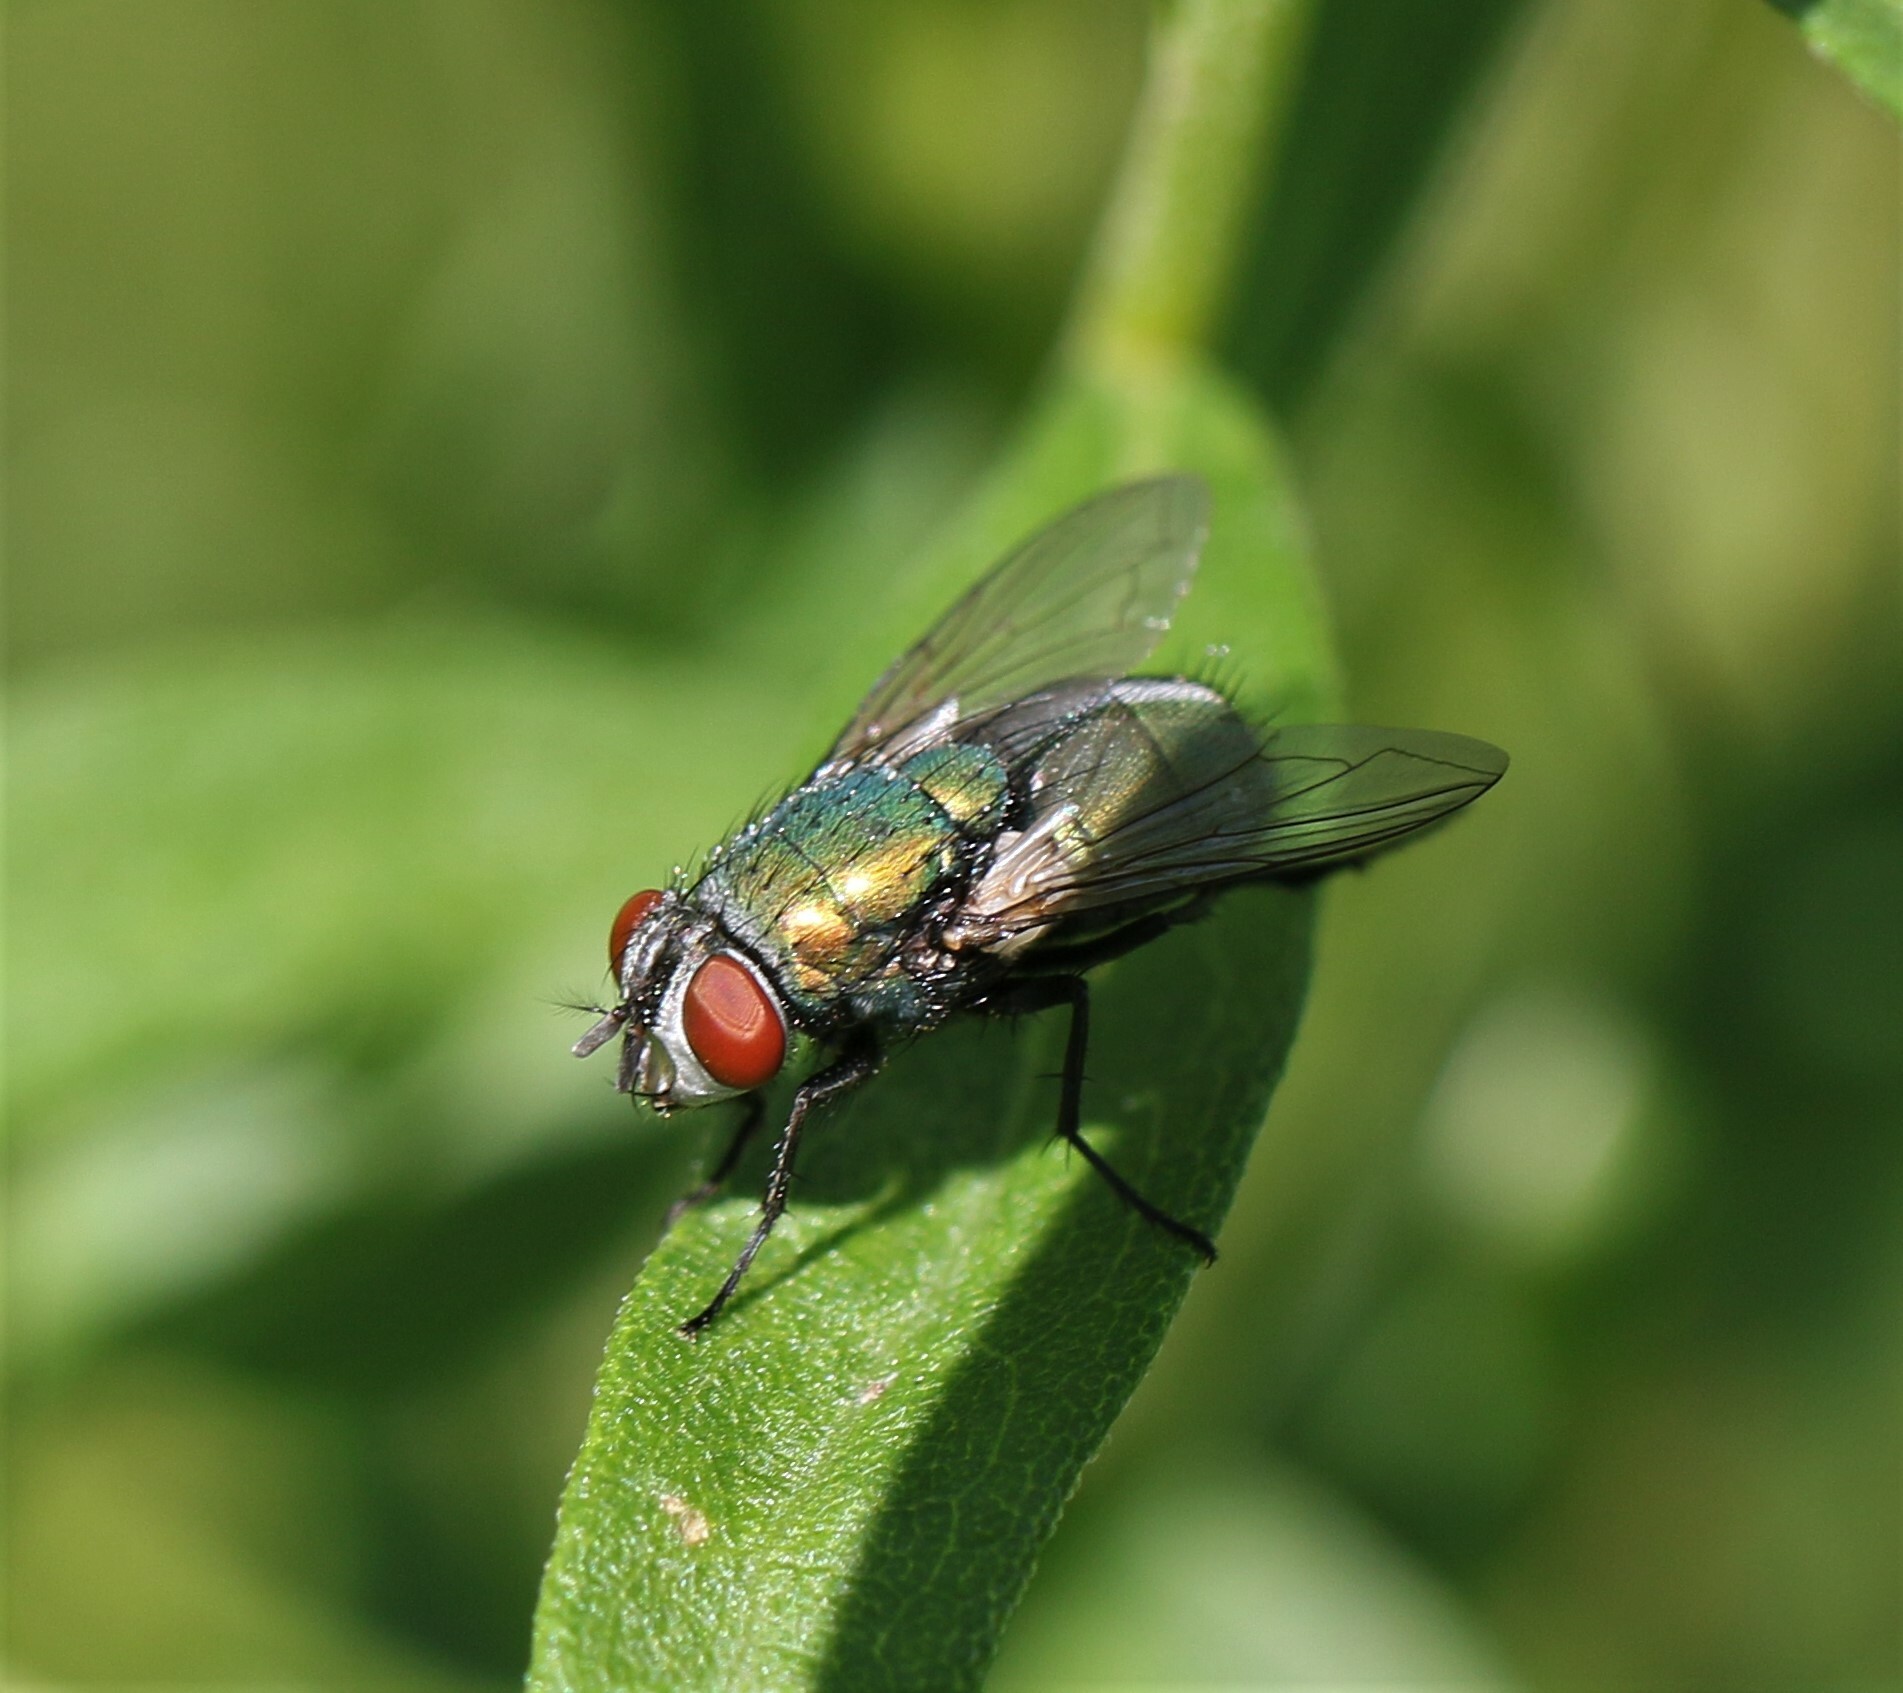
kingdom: Animalia
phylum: Arthropoda
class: Insecta
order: Diptera
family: Calliphoridae
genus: Lucilia
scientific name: Lucilia sericata
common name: Blow fly
